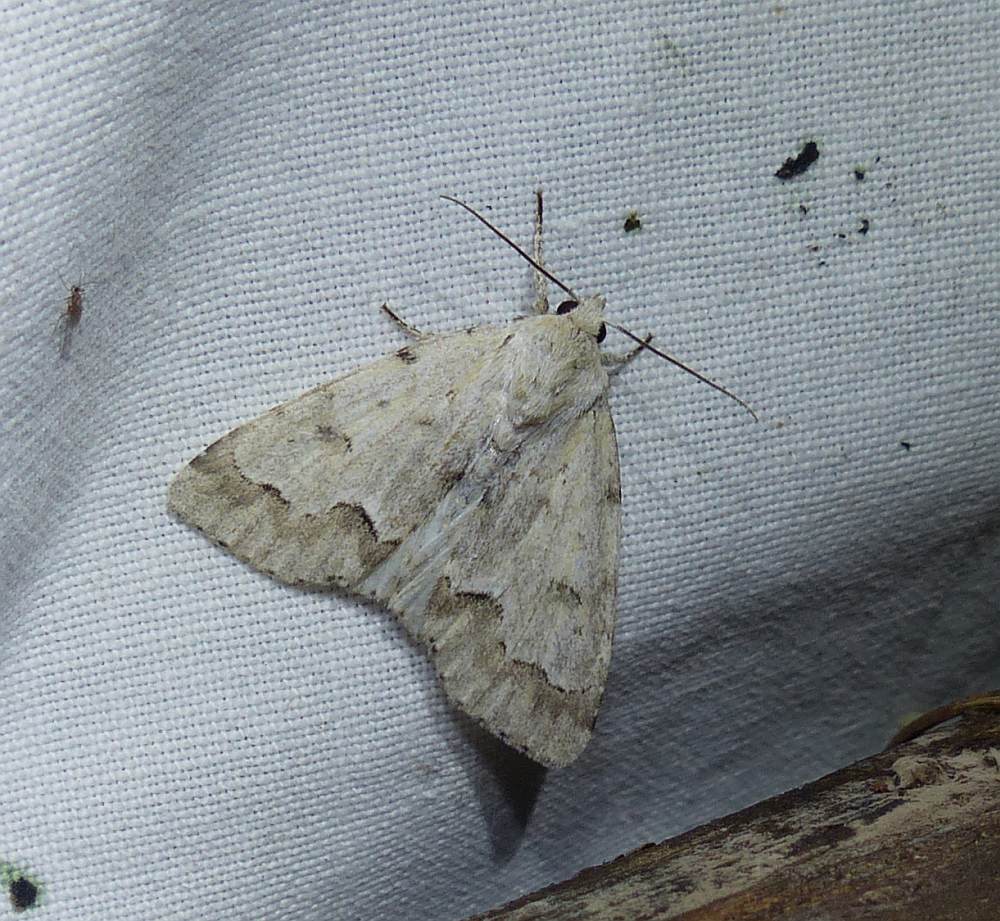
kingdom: Animalia
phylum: Arthropoda
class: Insecta
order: Lepidoptera
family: Noctuidae
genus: Acronicta
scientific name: Acronicta innotata
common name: Unmarked dagger
